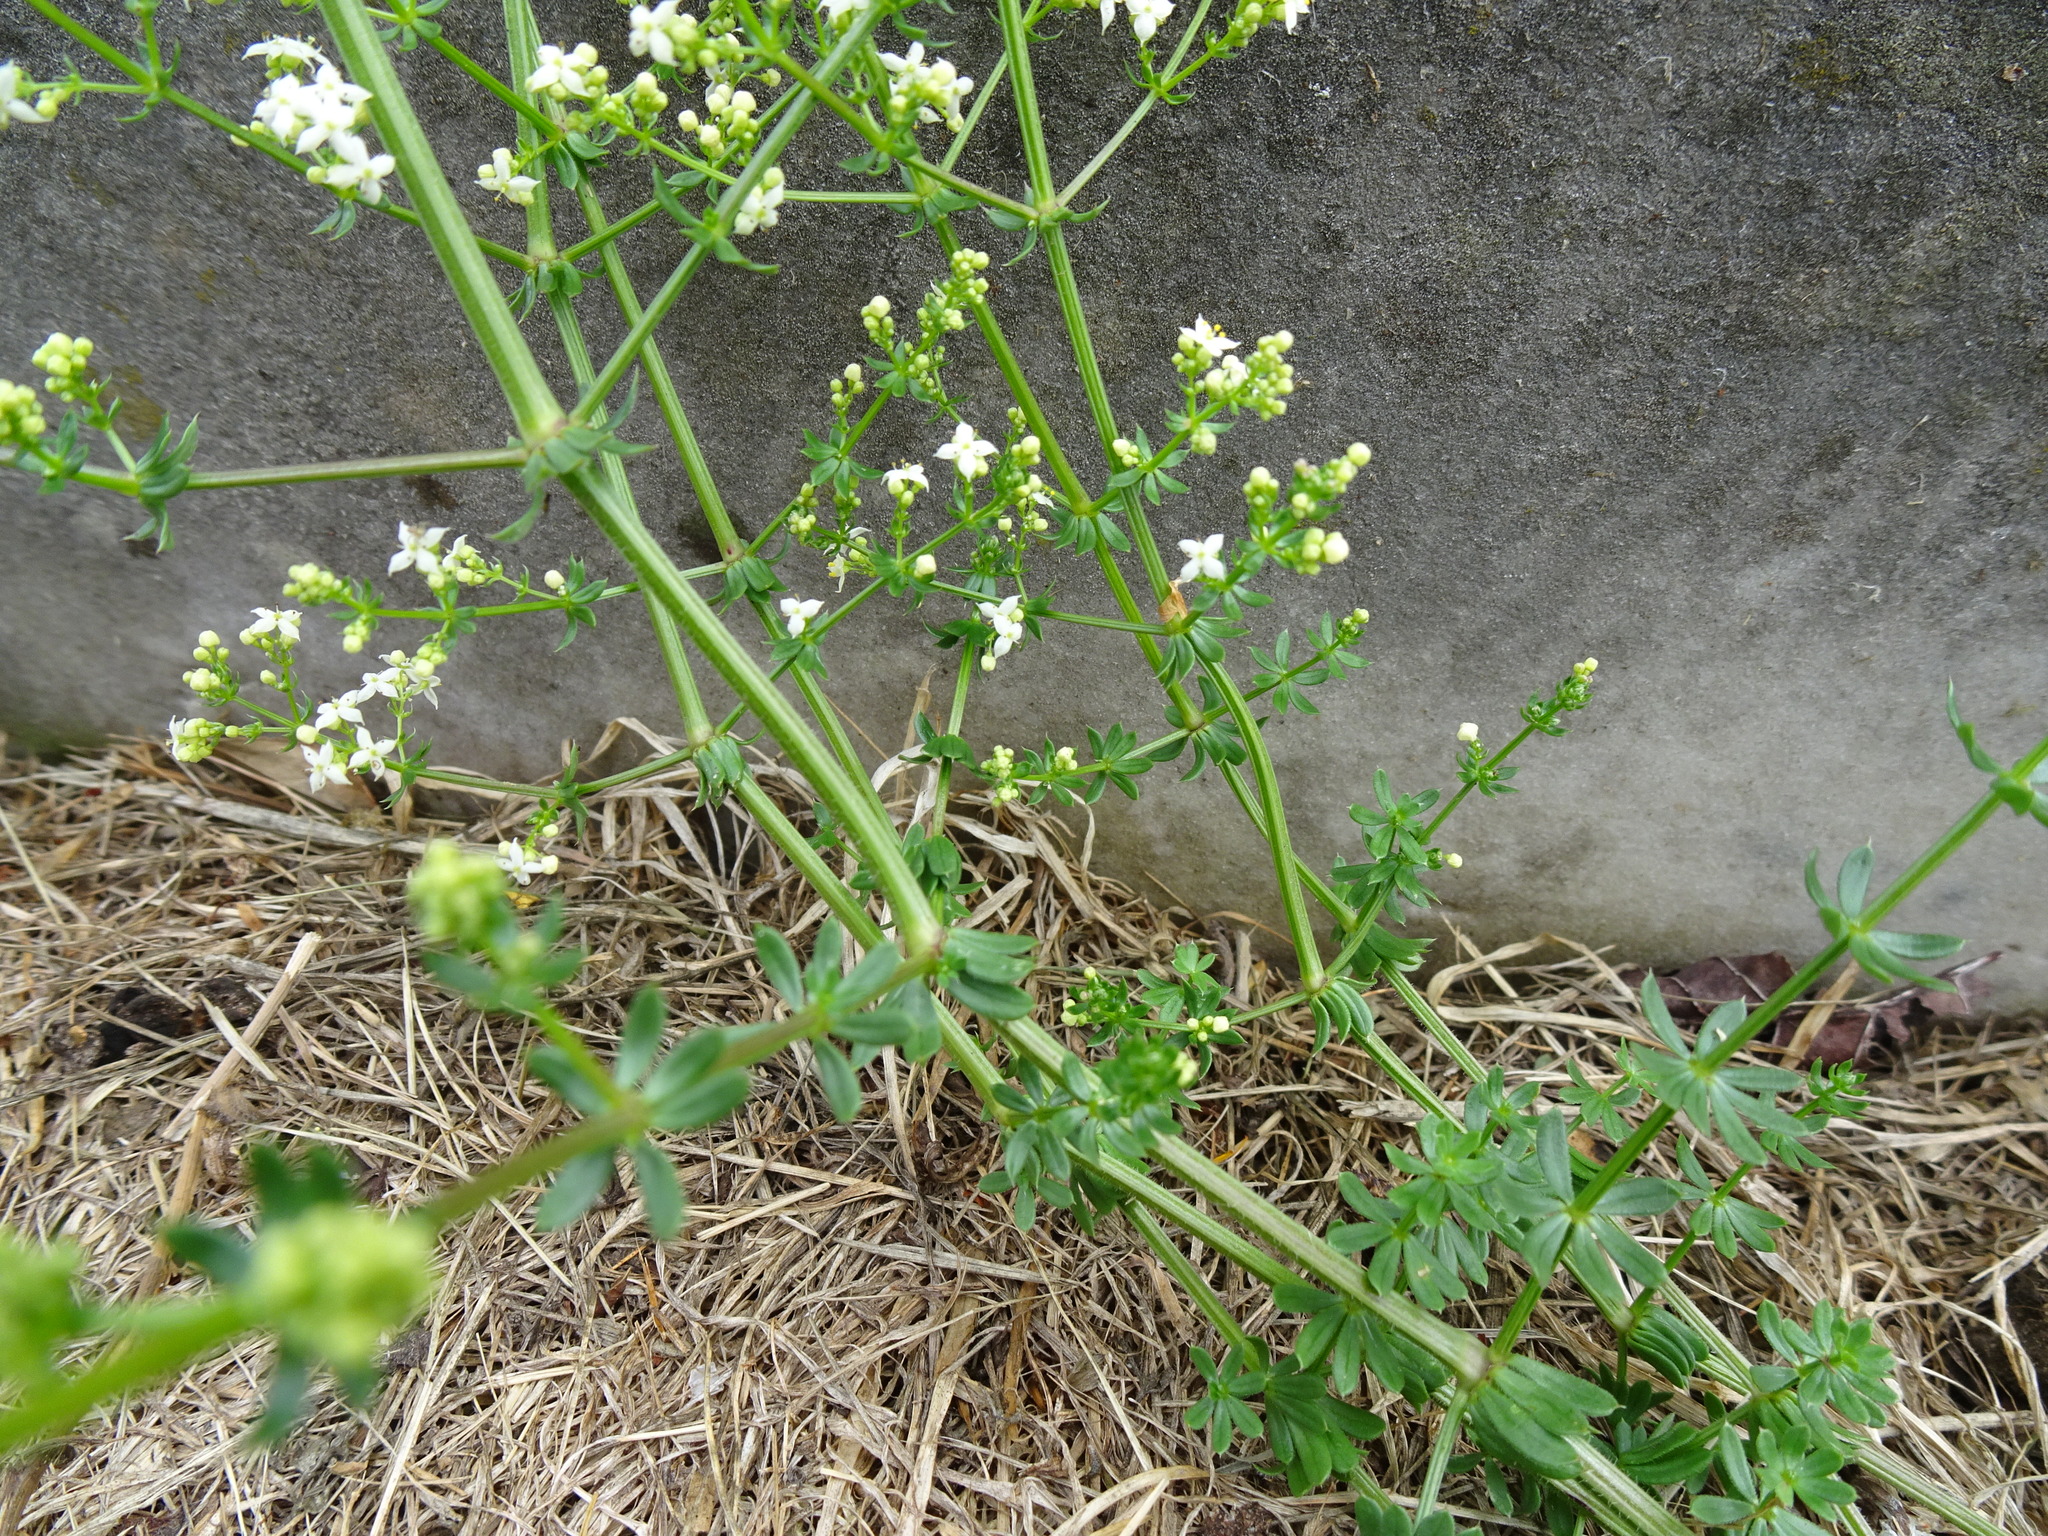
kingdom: Plantae
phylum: Tracheophyta
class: Magnoliopsida
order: Gentianales
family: Rubiaceae
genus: Galium
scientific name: Galium album
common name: White bedstraw
